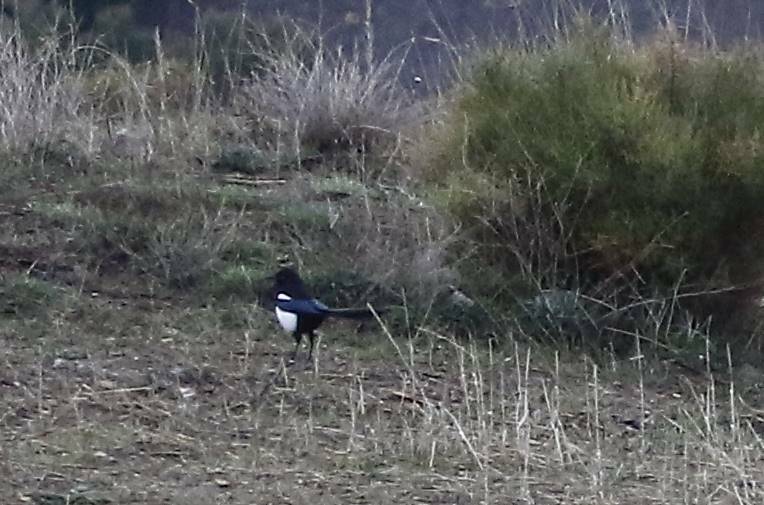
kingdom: Animalia
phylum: Chordata
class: Aves
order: Passeriformes
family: Corvidae
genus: Pica
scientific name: Pica mauritanica
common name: Maghreb magpie
